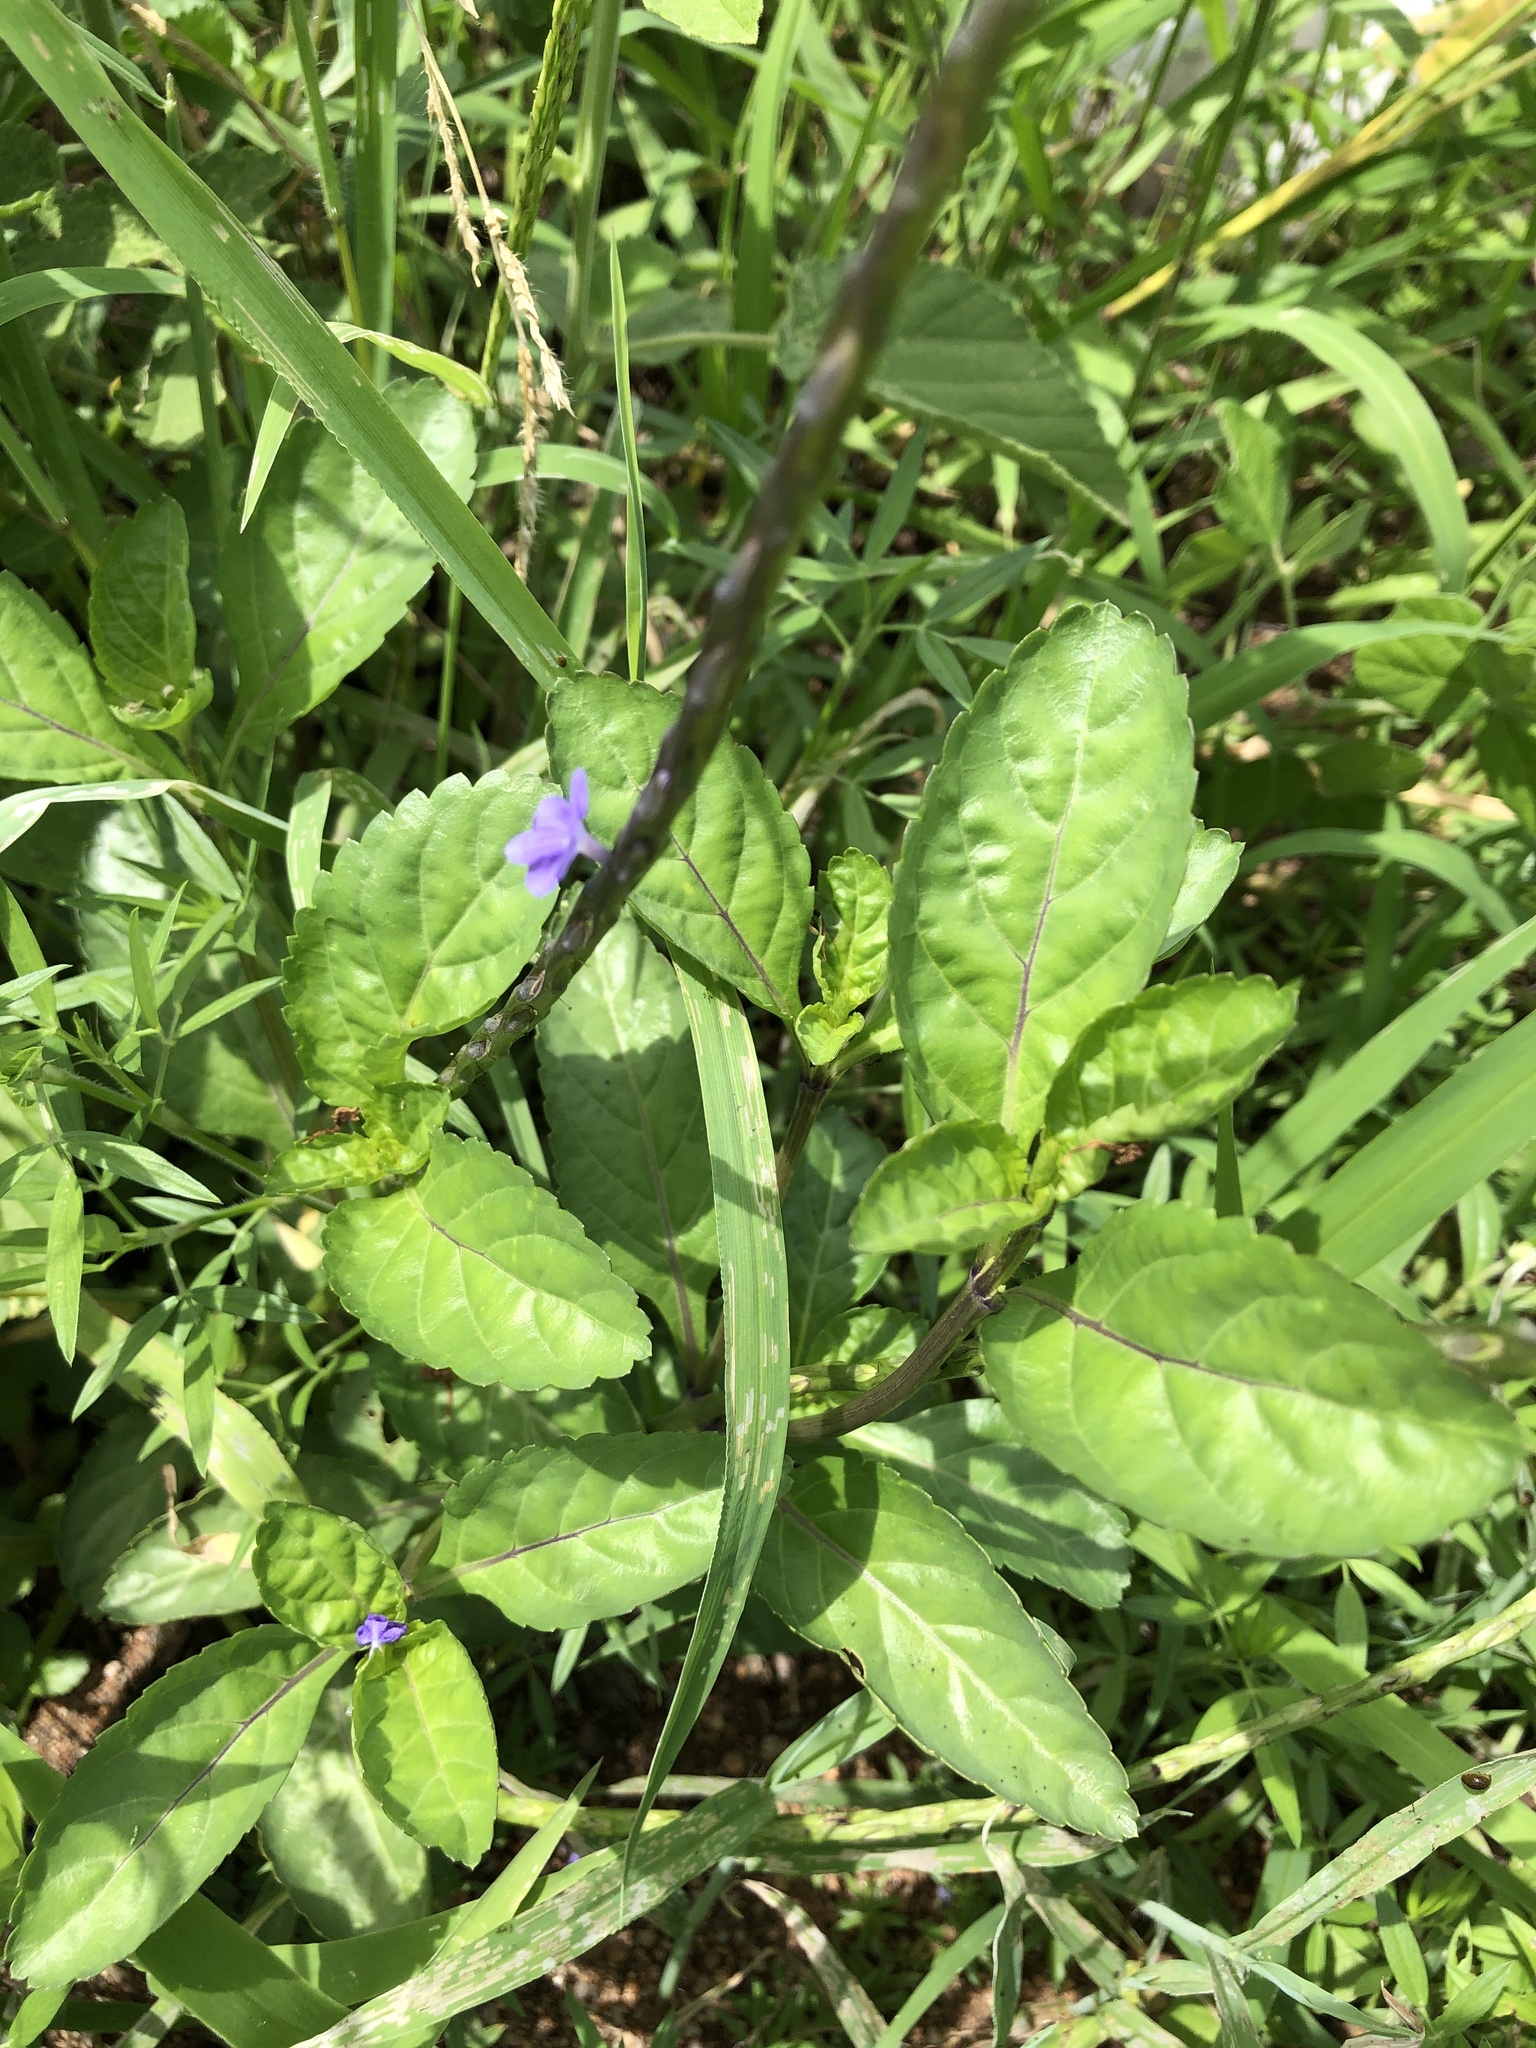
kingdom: Plantae
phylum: Tracheophyta
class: Magnoliopsida
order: Lamiales
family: Verbenaceae
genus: Stachytarpheta
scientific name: Stachytarpheta jamaicensis
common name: Light-blue snakeweed
